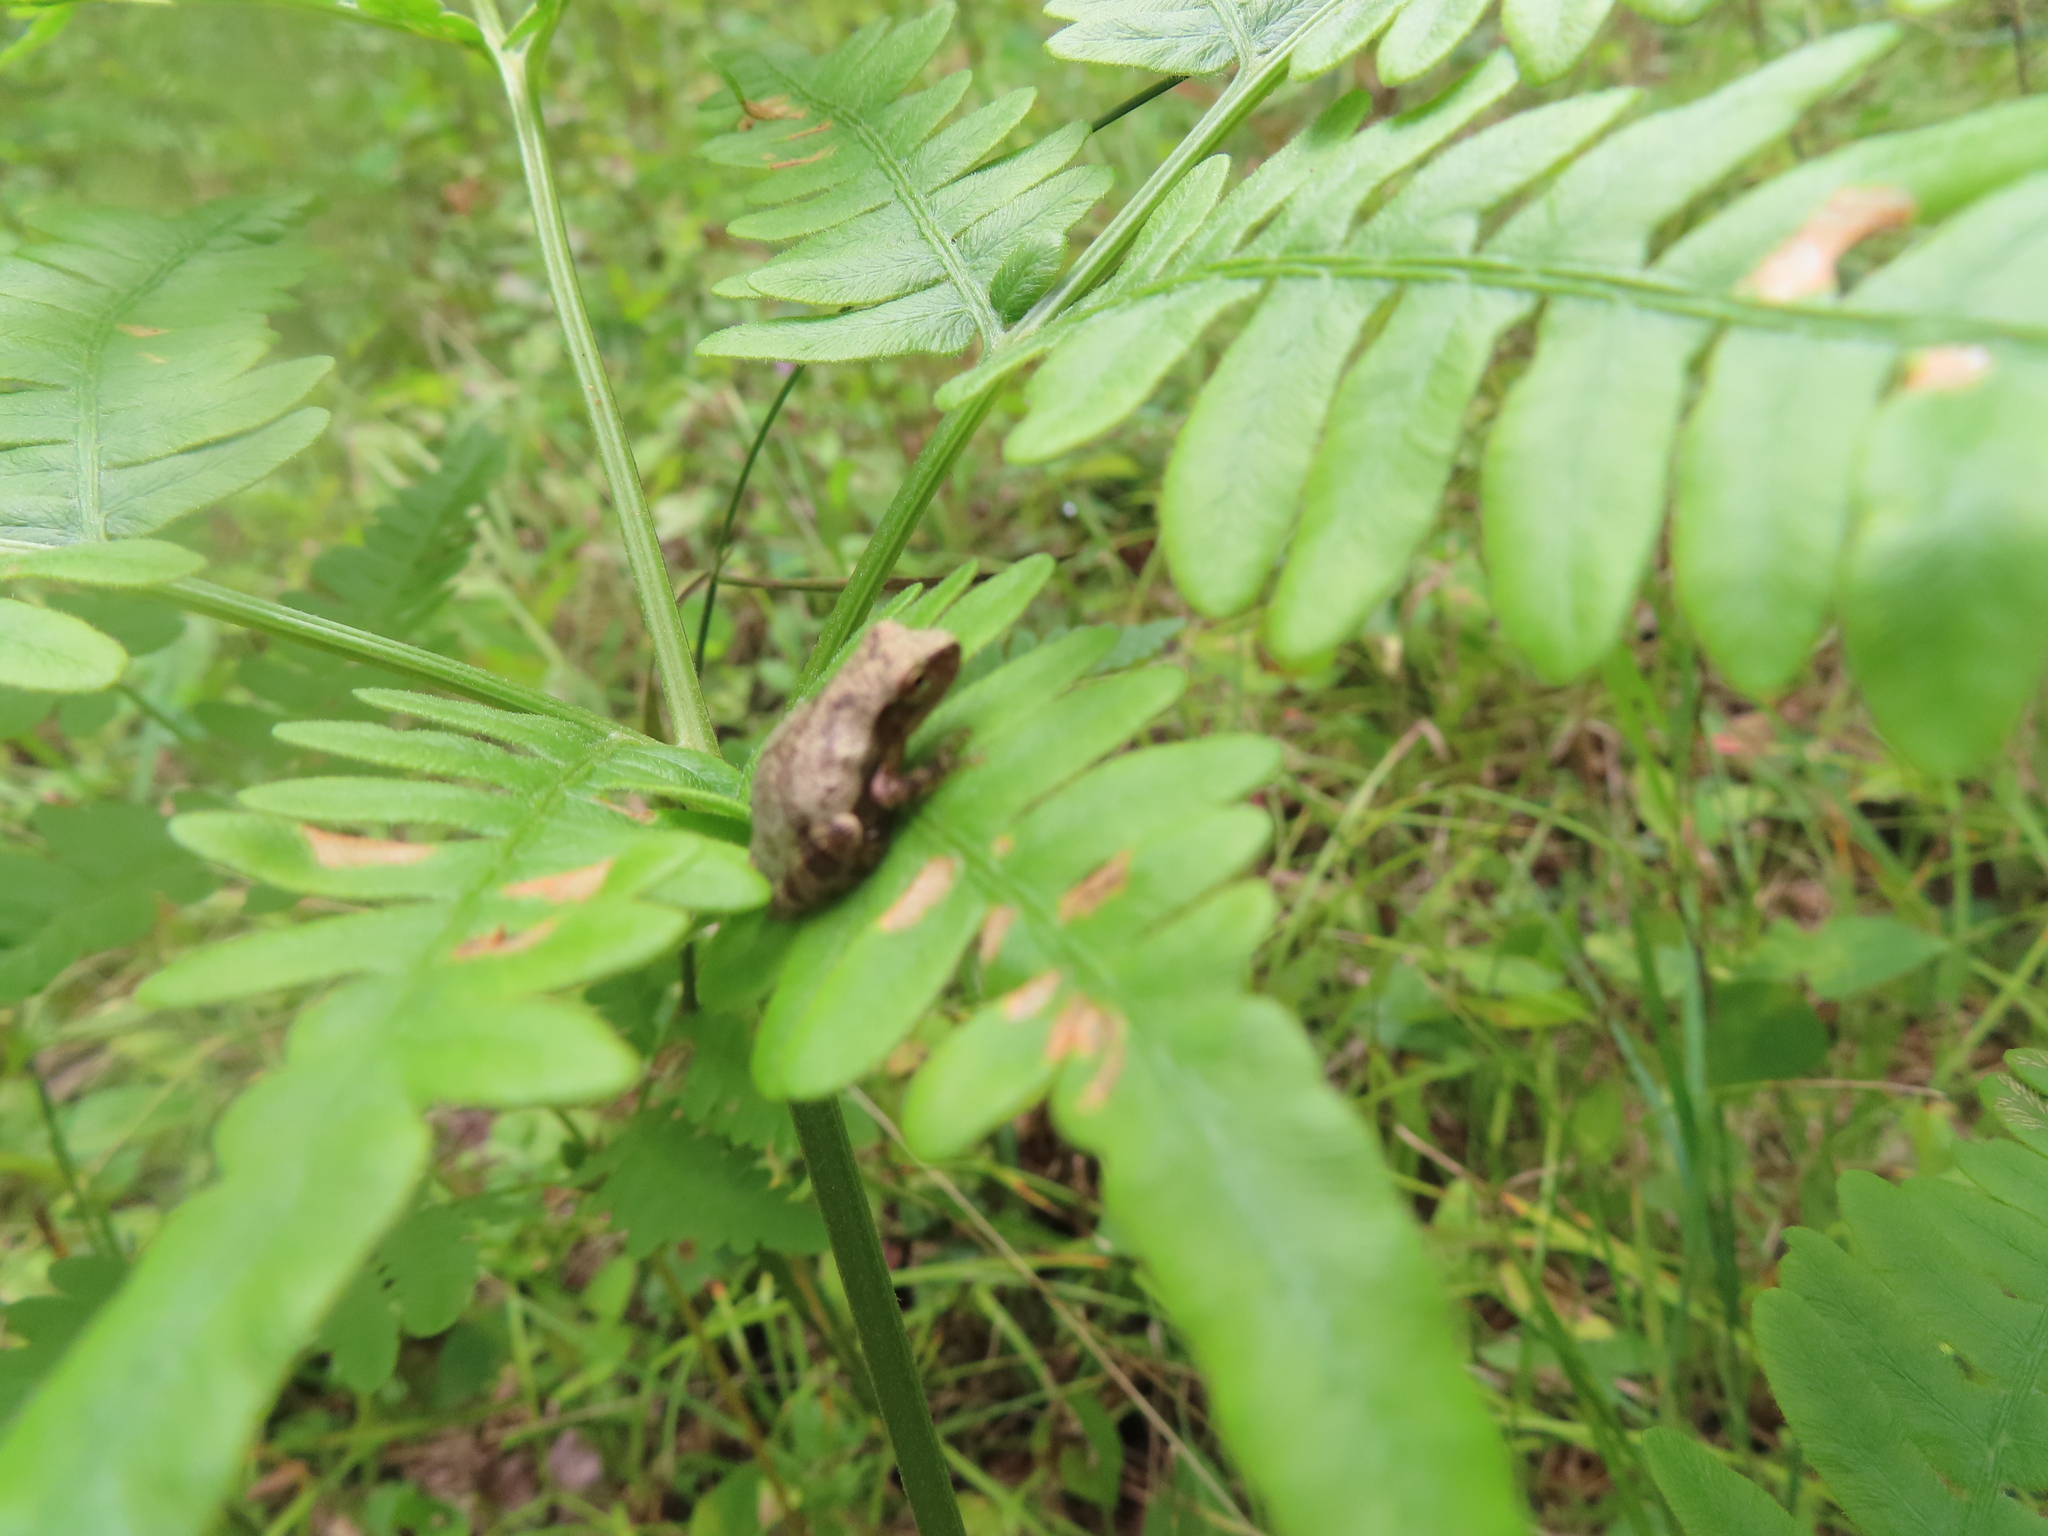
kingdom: Animalia
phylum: Chordata
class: Amphibia
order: Anura
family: Hylidae
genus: Pseudacris
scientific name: Pseudacris crucifer
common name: Spring peeper
